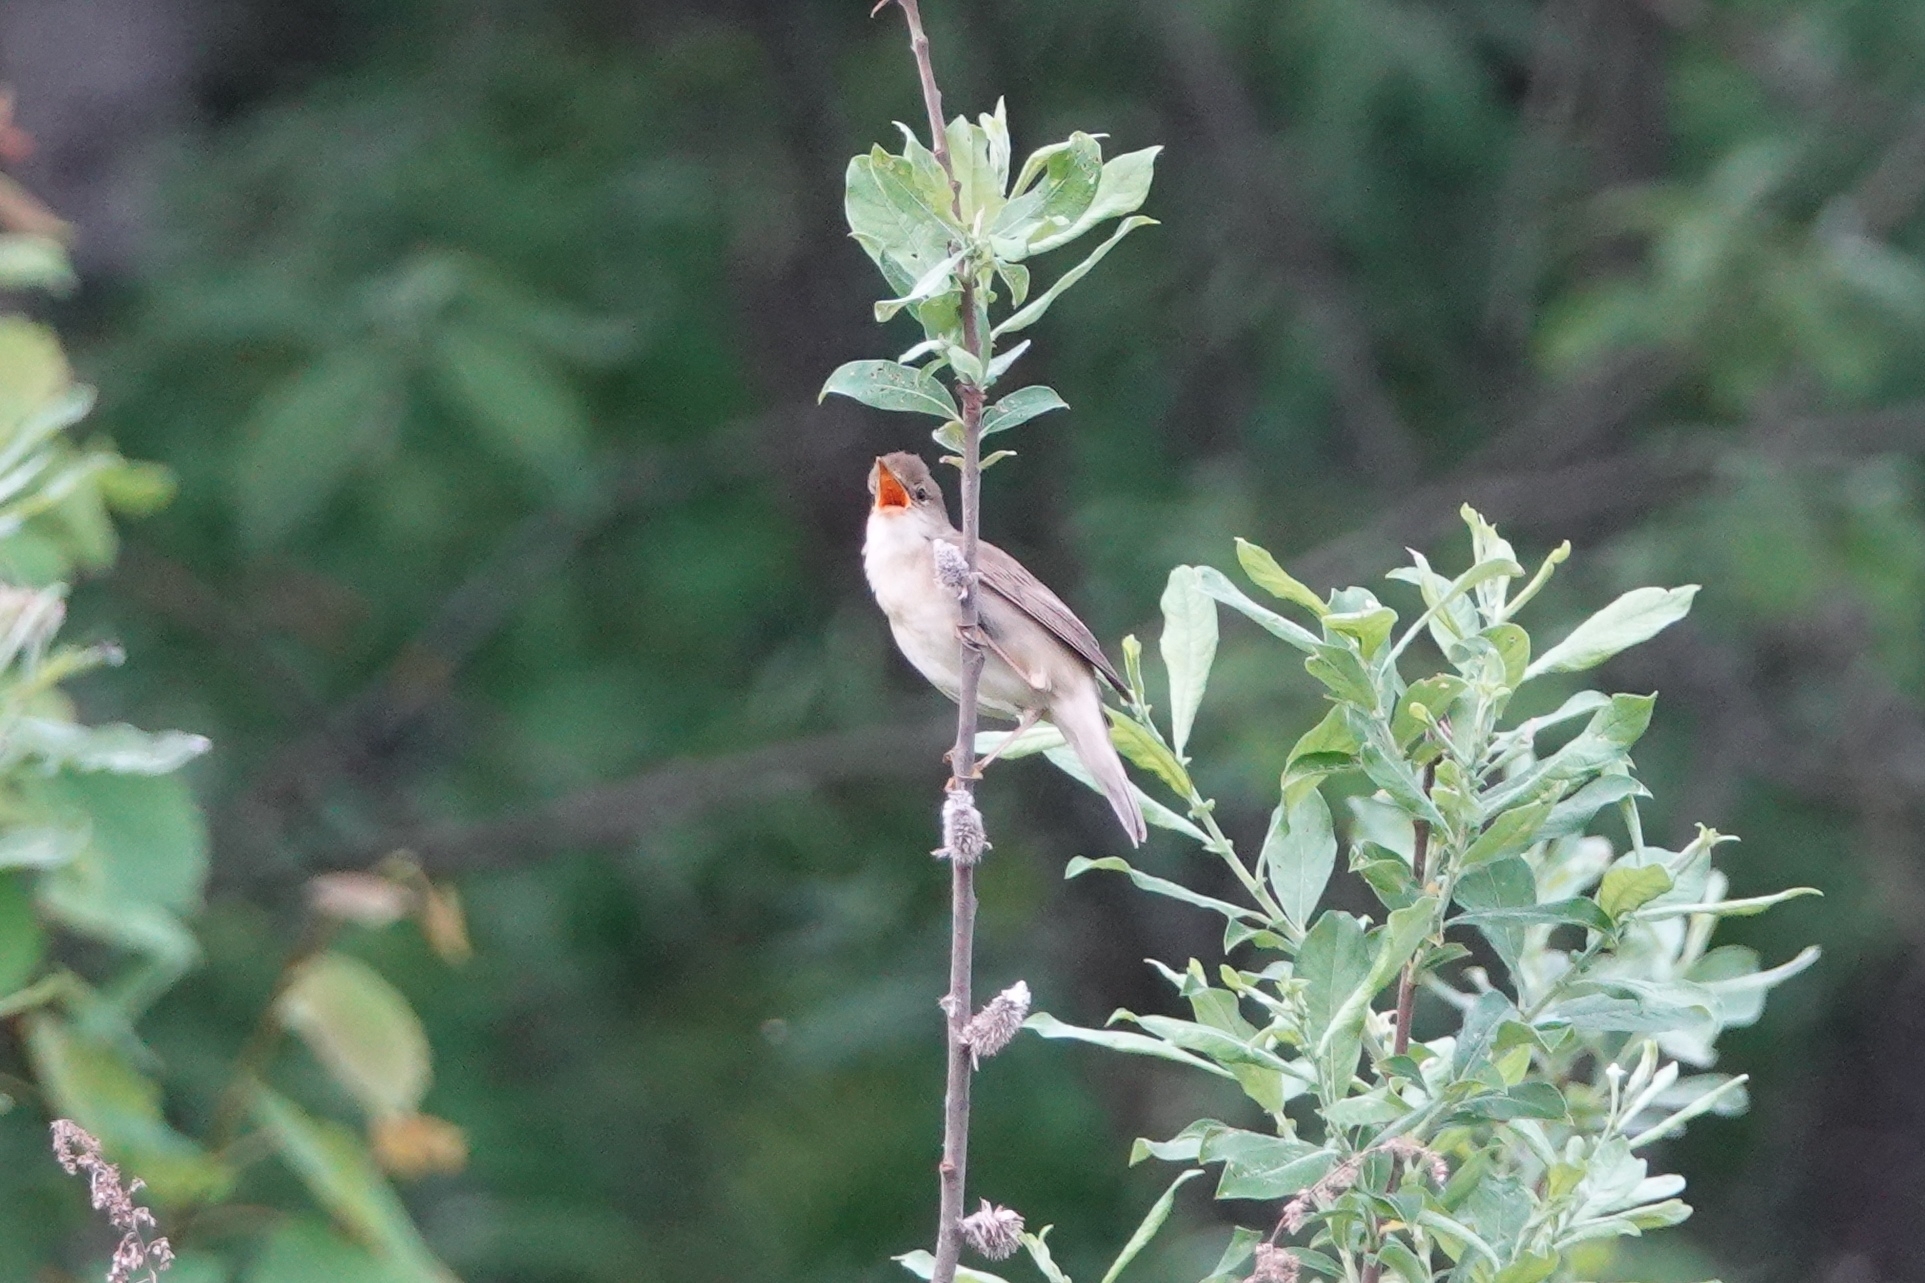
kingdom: Animalia
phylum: Chordata
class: Aves
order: Passeriformes
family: Acrocephalidae
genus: Acrocephalus
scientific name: Acrocephalus palustris
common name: Marsh warbler
